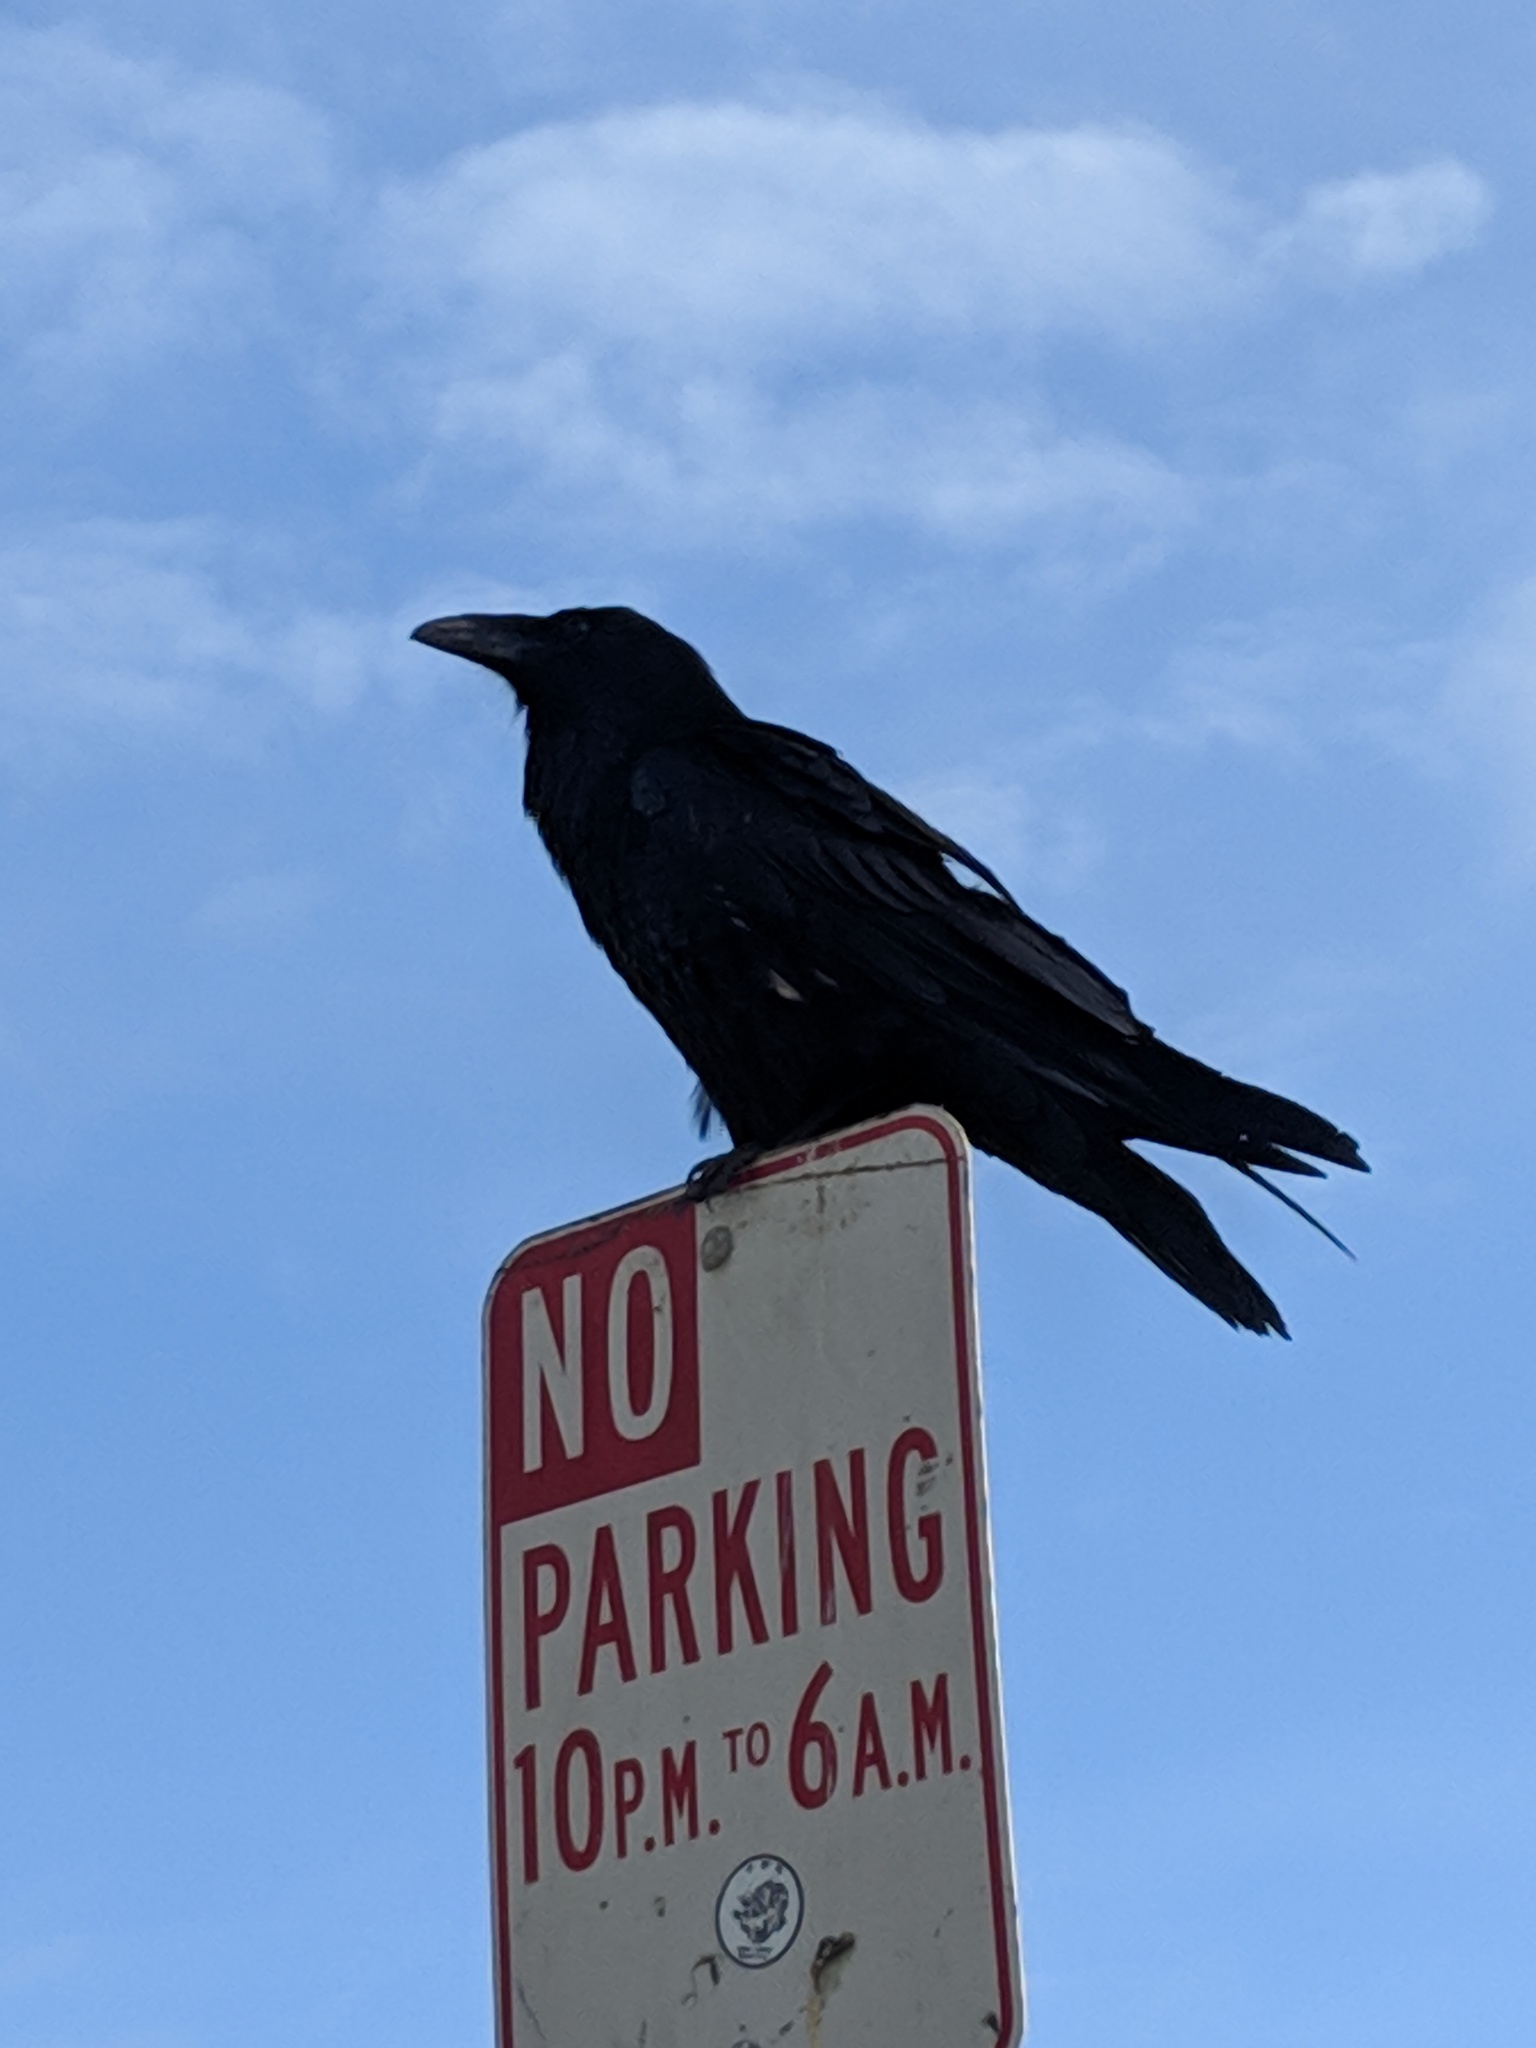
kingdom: Animalia
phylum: Chordata
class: Aves
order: Passeriformes
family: Corvidae
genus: Corvus
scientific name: Corvus corax
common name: Common raven
